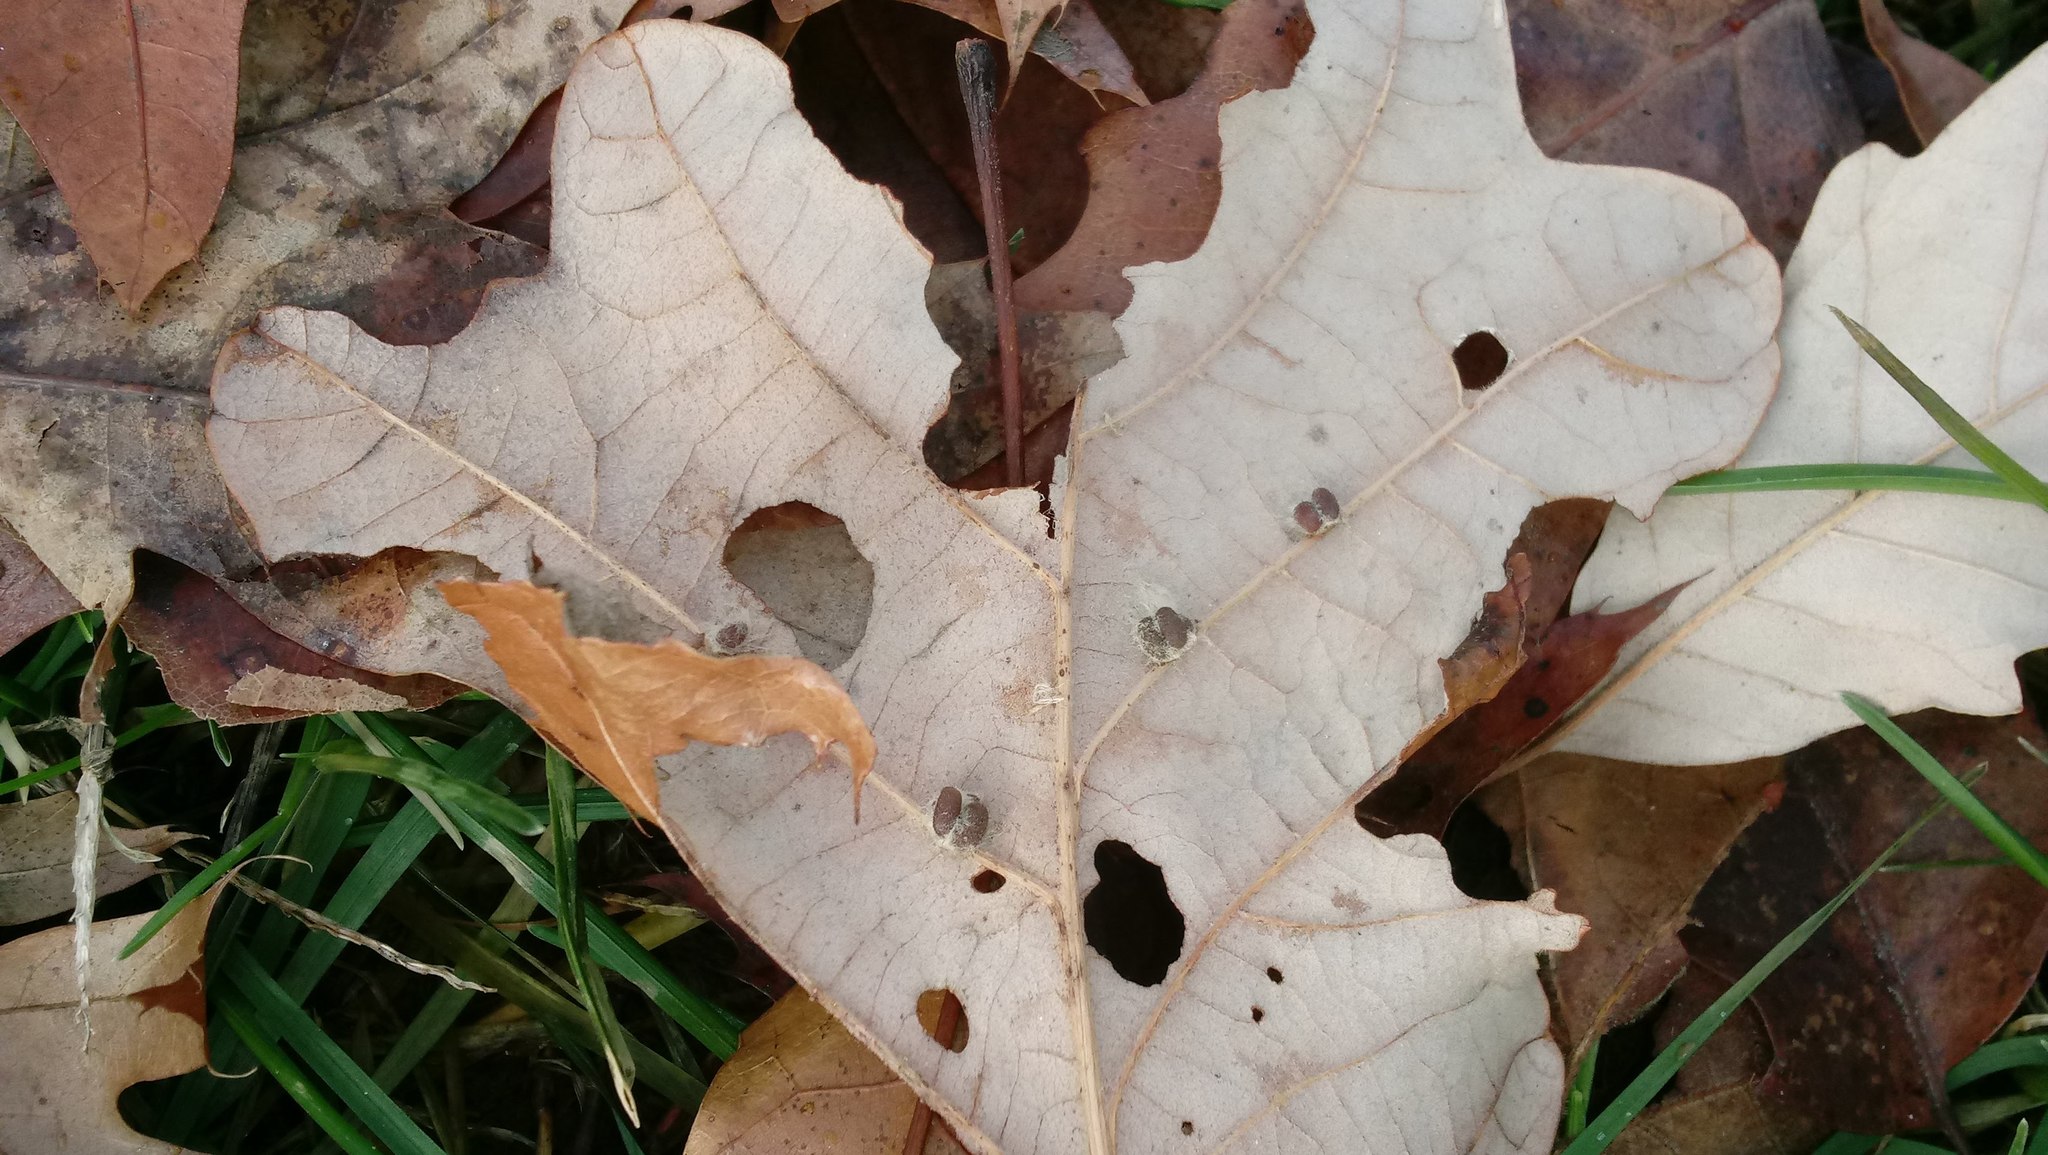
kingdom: Animalia
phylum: Arthropoda
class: Insecta
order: Hymenoptera
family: Cynipidae
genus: Andricus
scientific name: Andricus Druon ignotum
